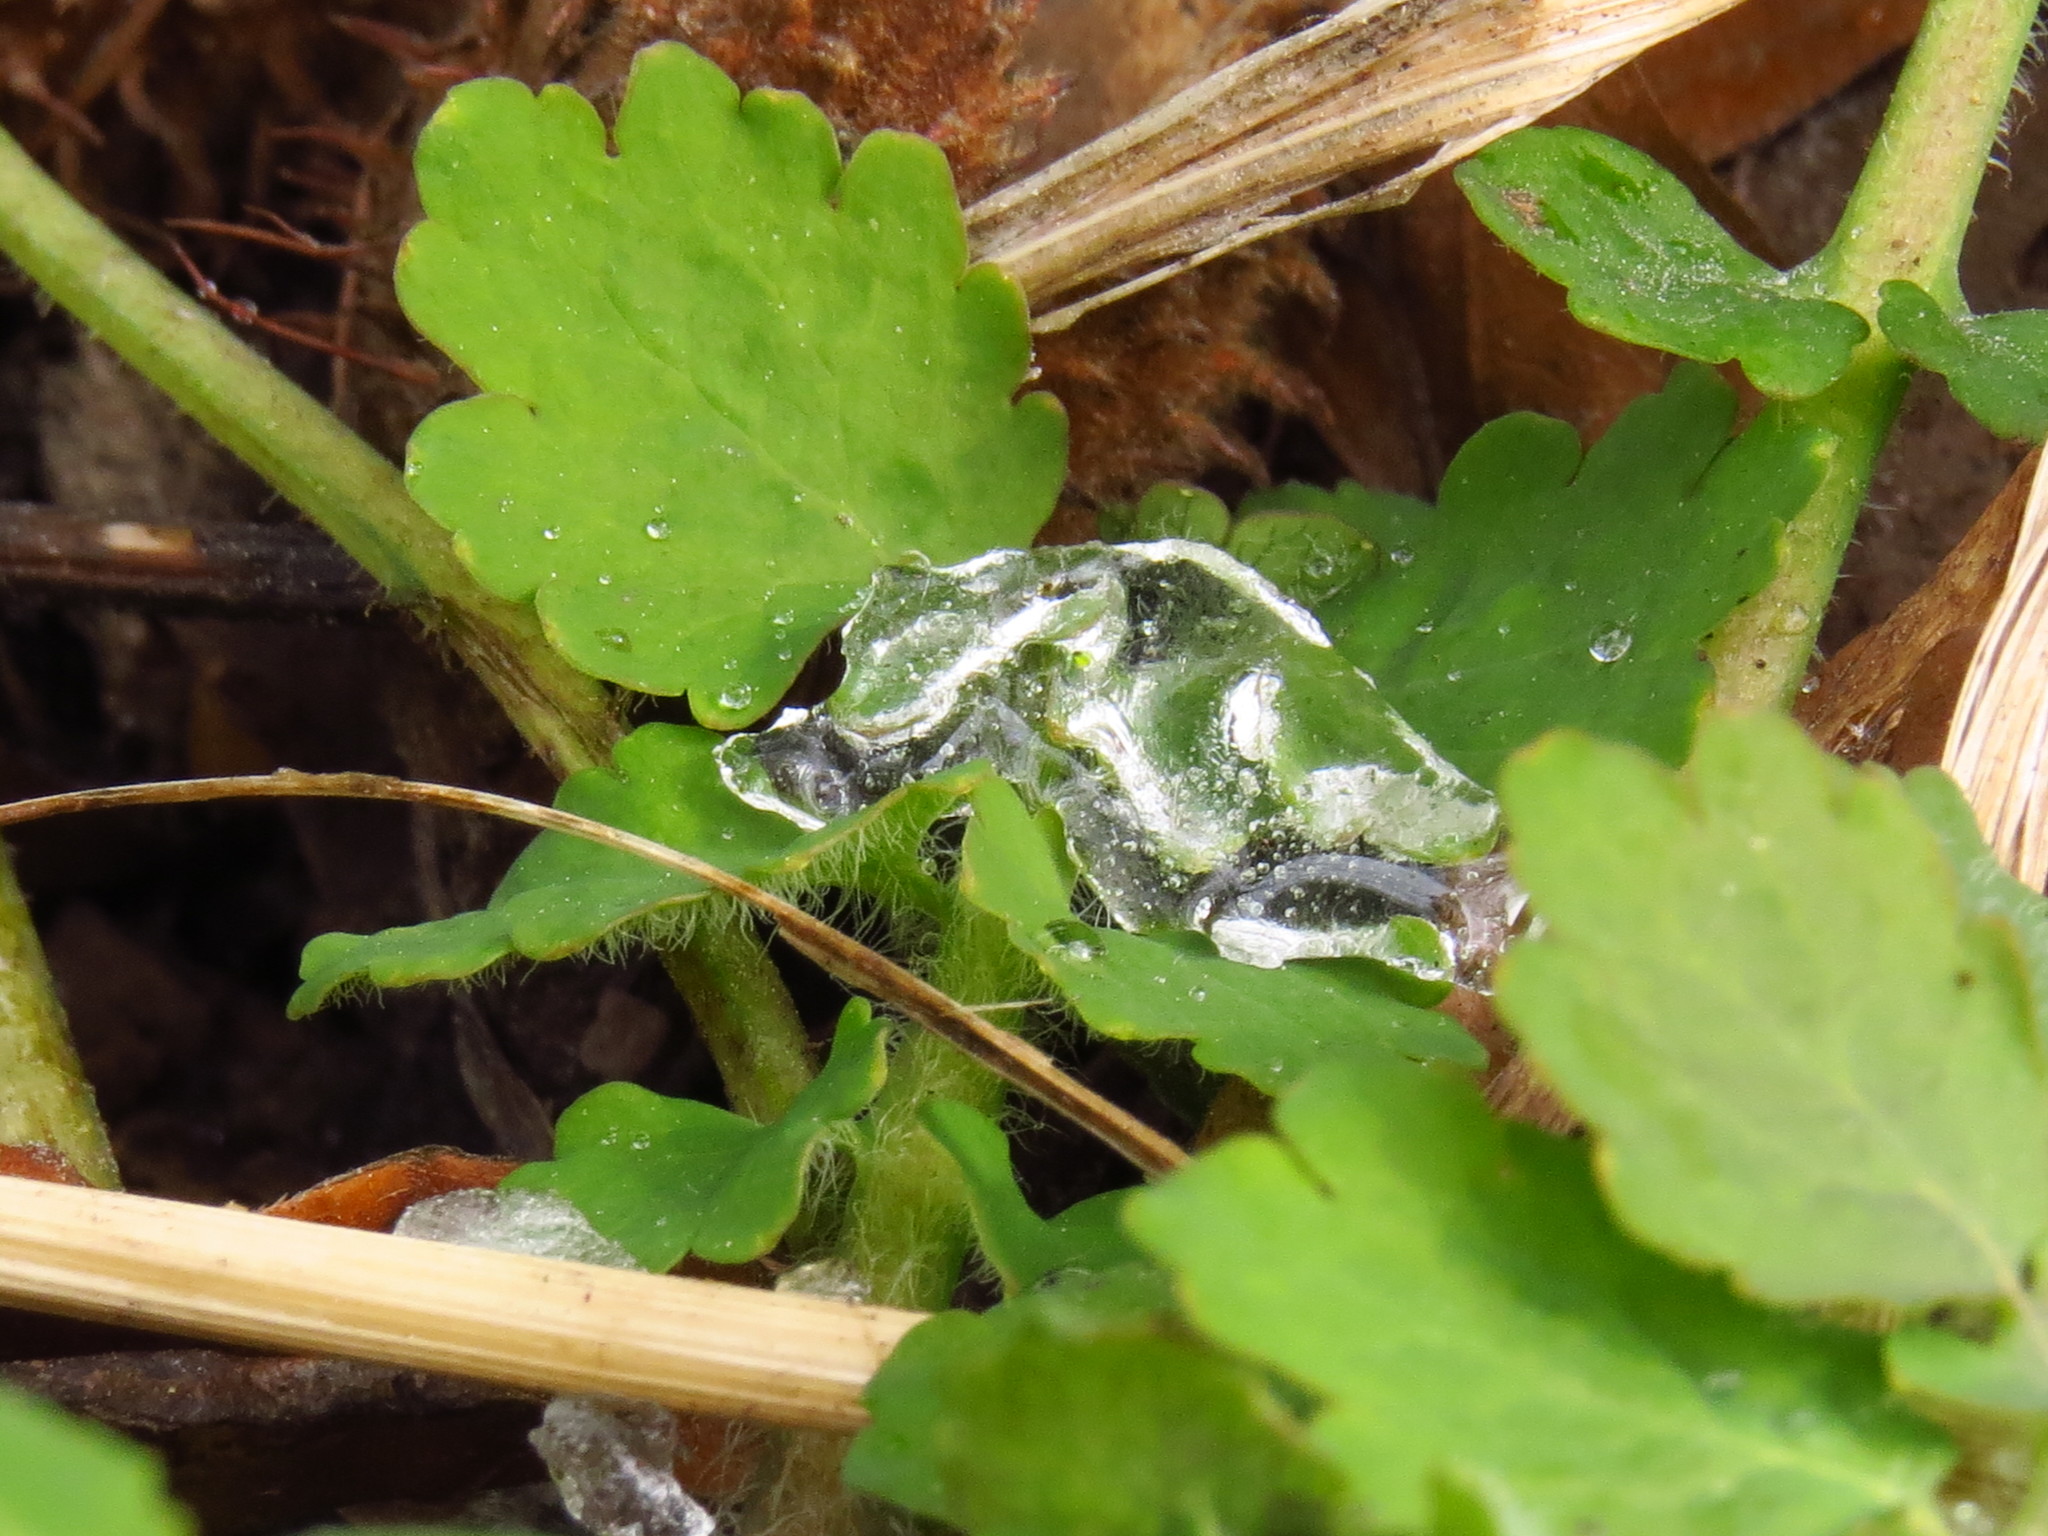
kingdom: Plantae
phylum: Tracheophyta
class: Magnoliopsida
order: Ranunculales
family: Papaveraceae
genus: Chelidonium
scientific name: Chelidonium majus
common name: Greater celandine
